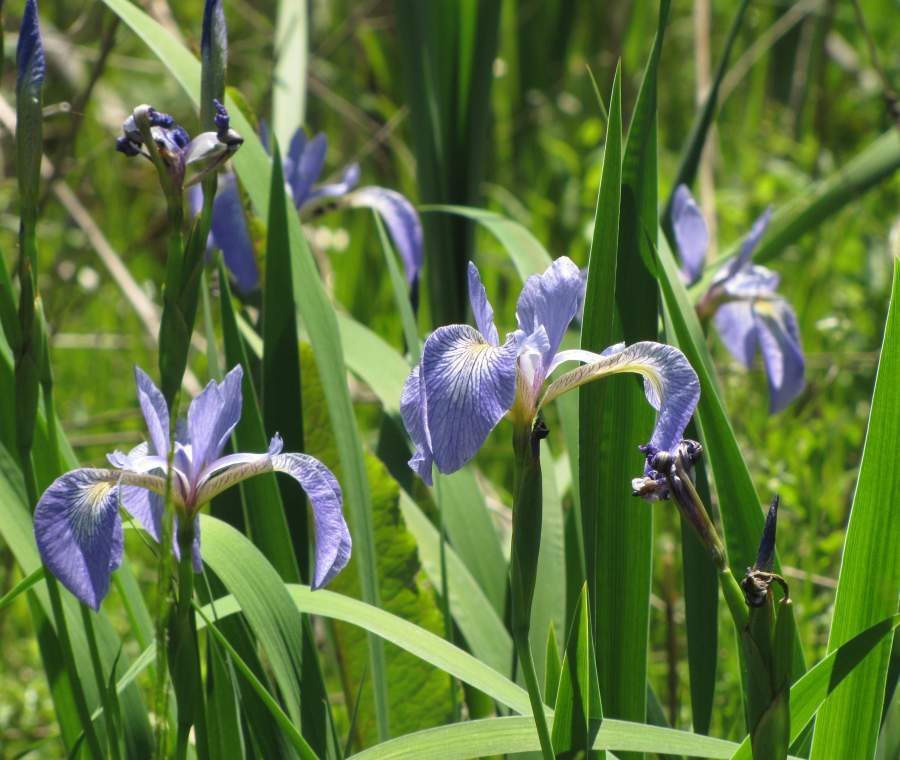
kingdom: Plantae
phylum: Tracheophyta
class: Liliopsida
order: Asparagales
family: Iridaceae
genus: Iris
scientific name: Iris versicolor
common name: Purple iris
